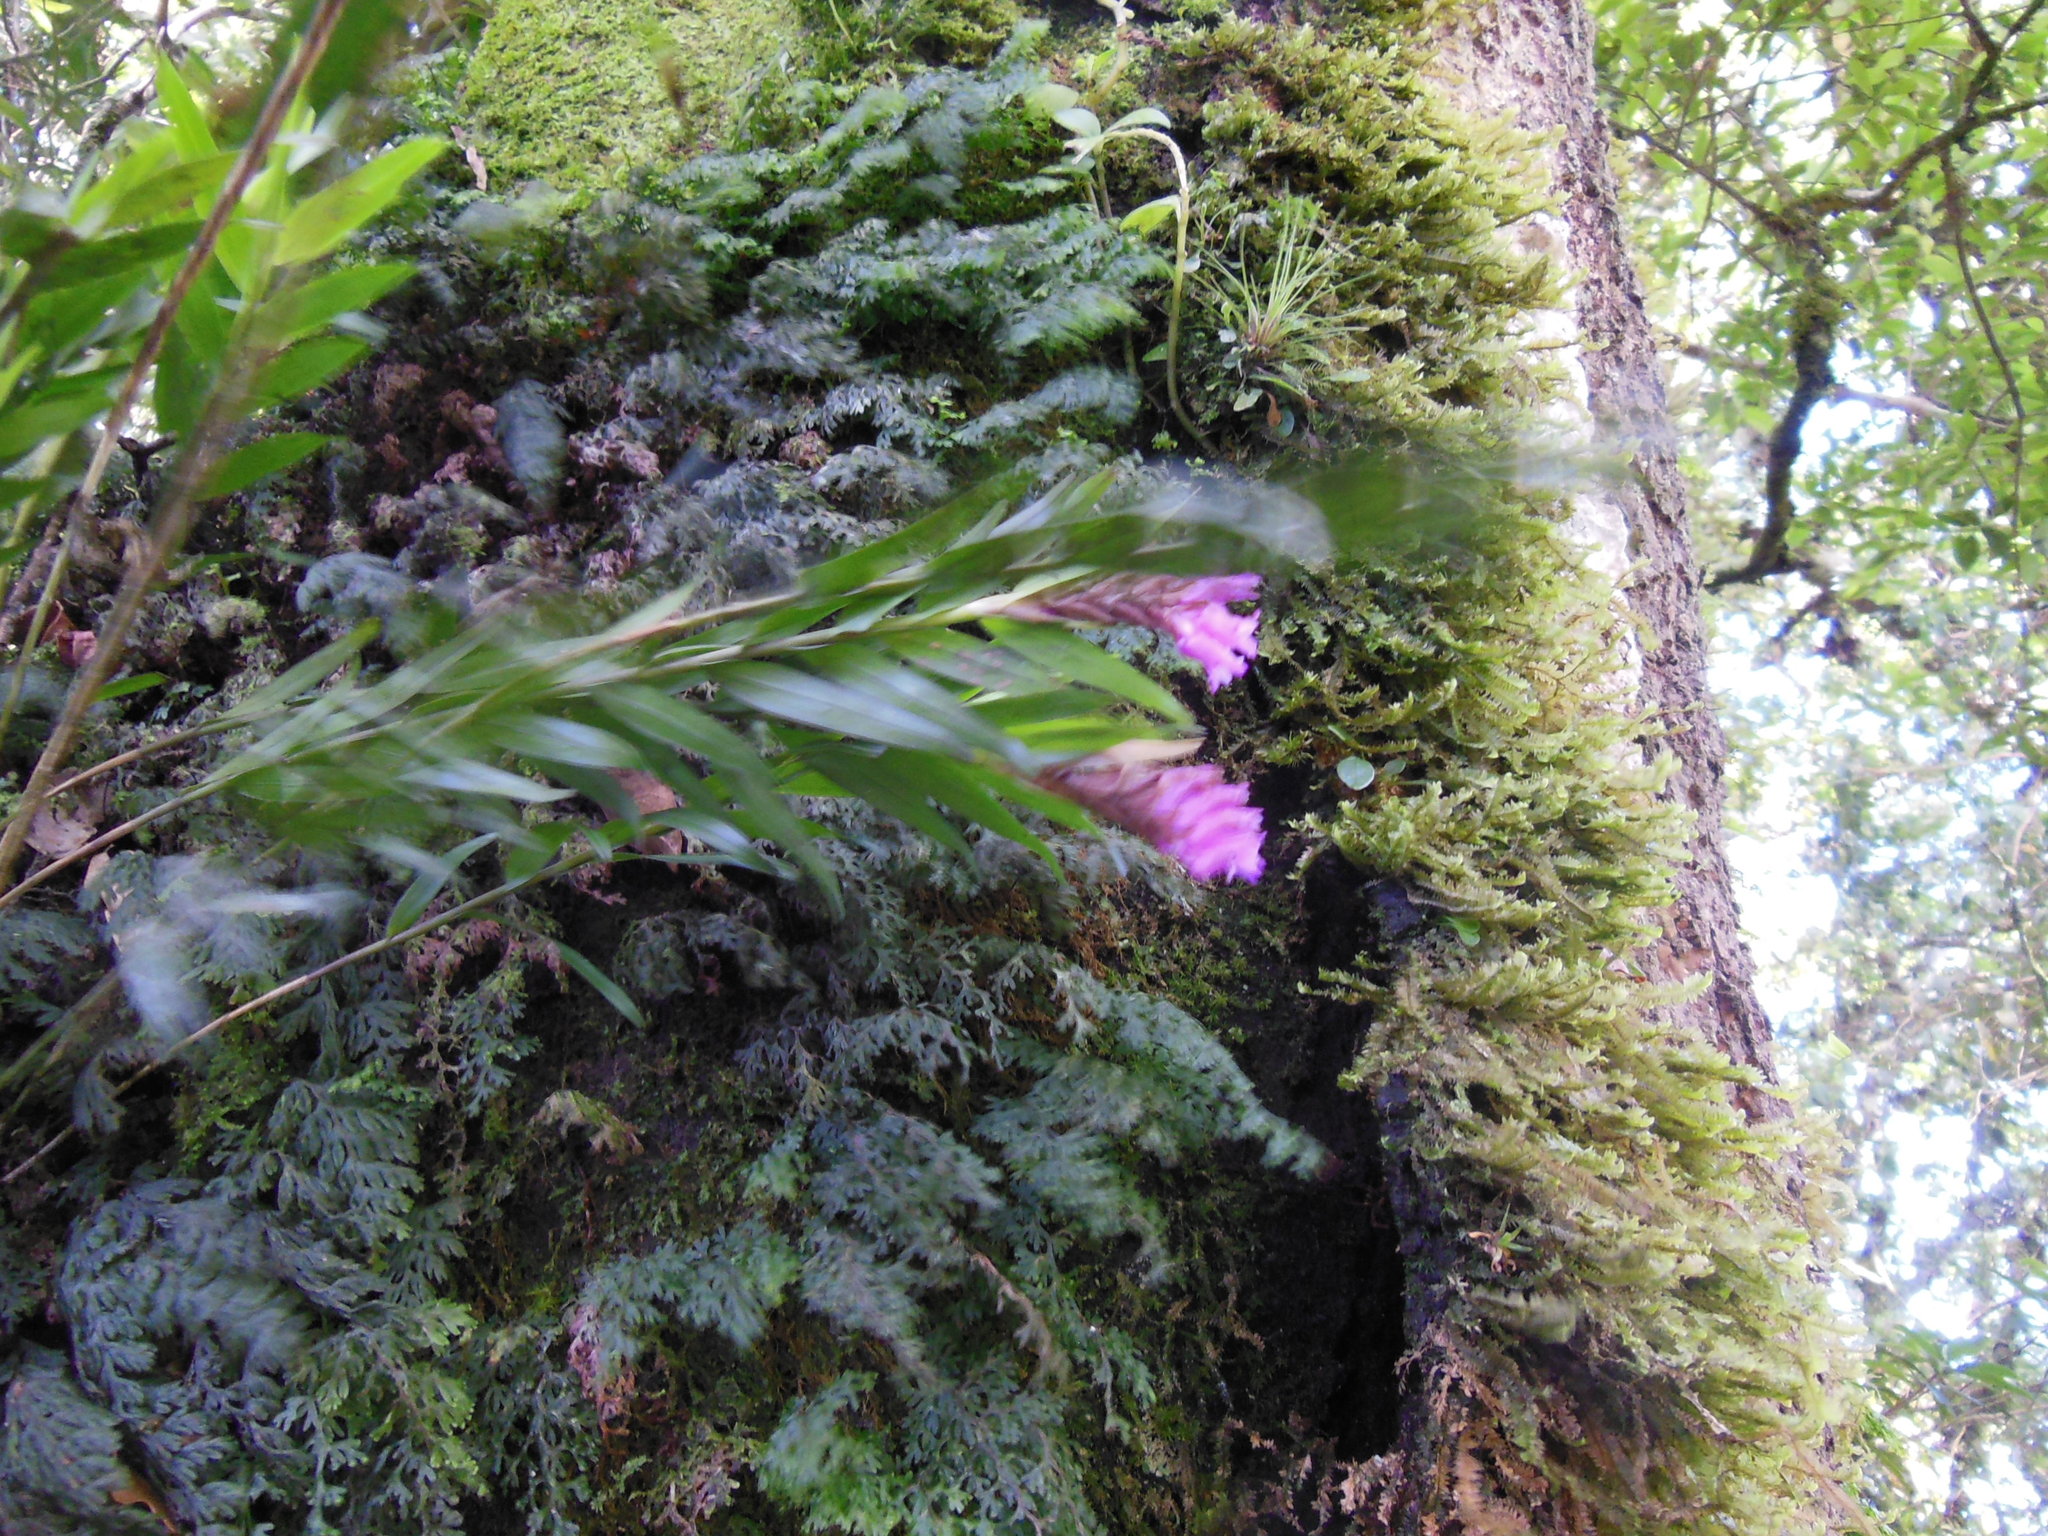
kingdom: Plantae
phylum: Tracheophyta
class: Liliopsida
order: Asparagales
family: Orchidaceae
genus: Isochilus
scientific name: Isochilus latibracteatus
